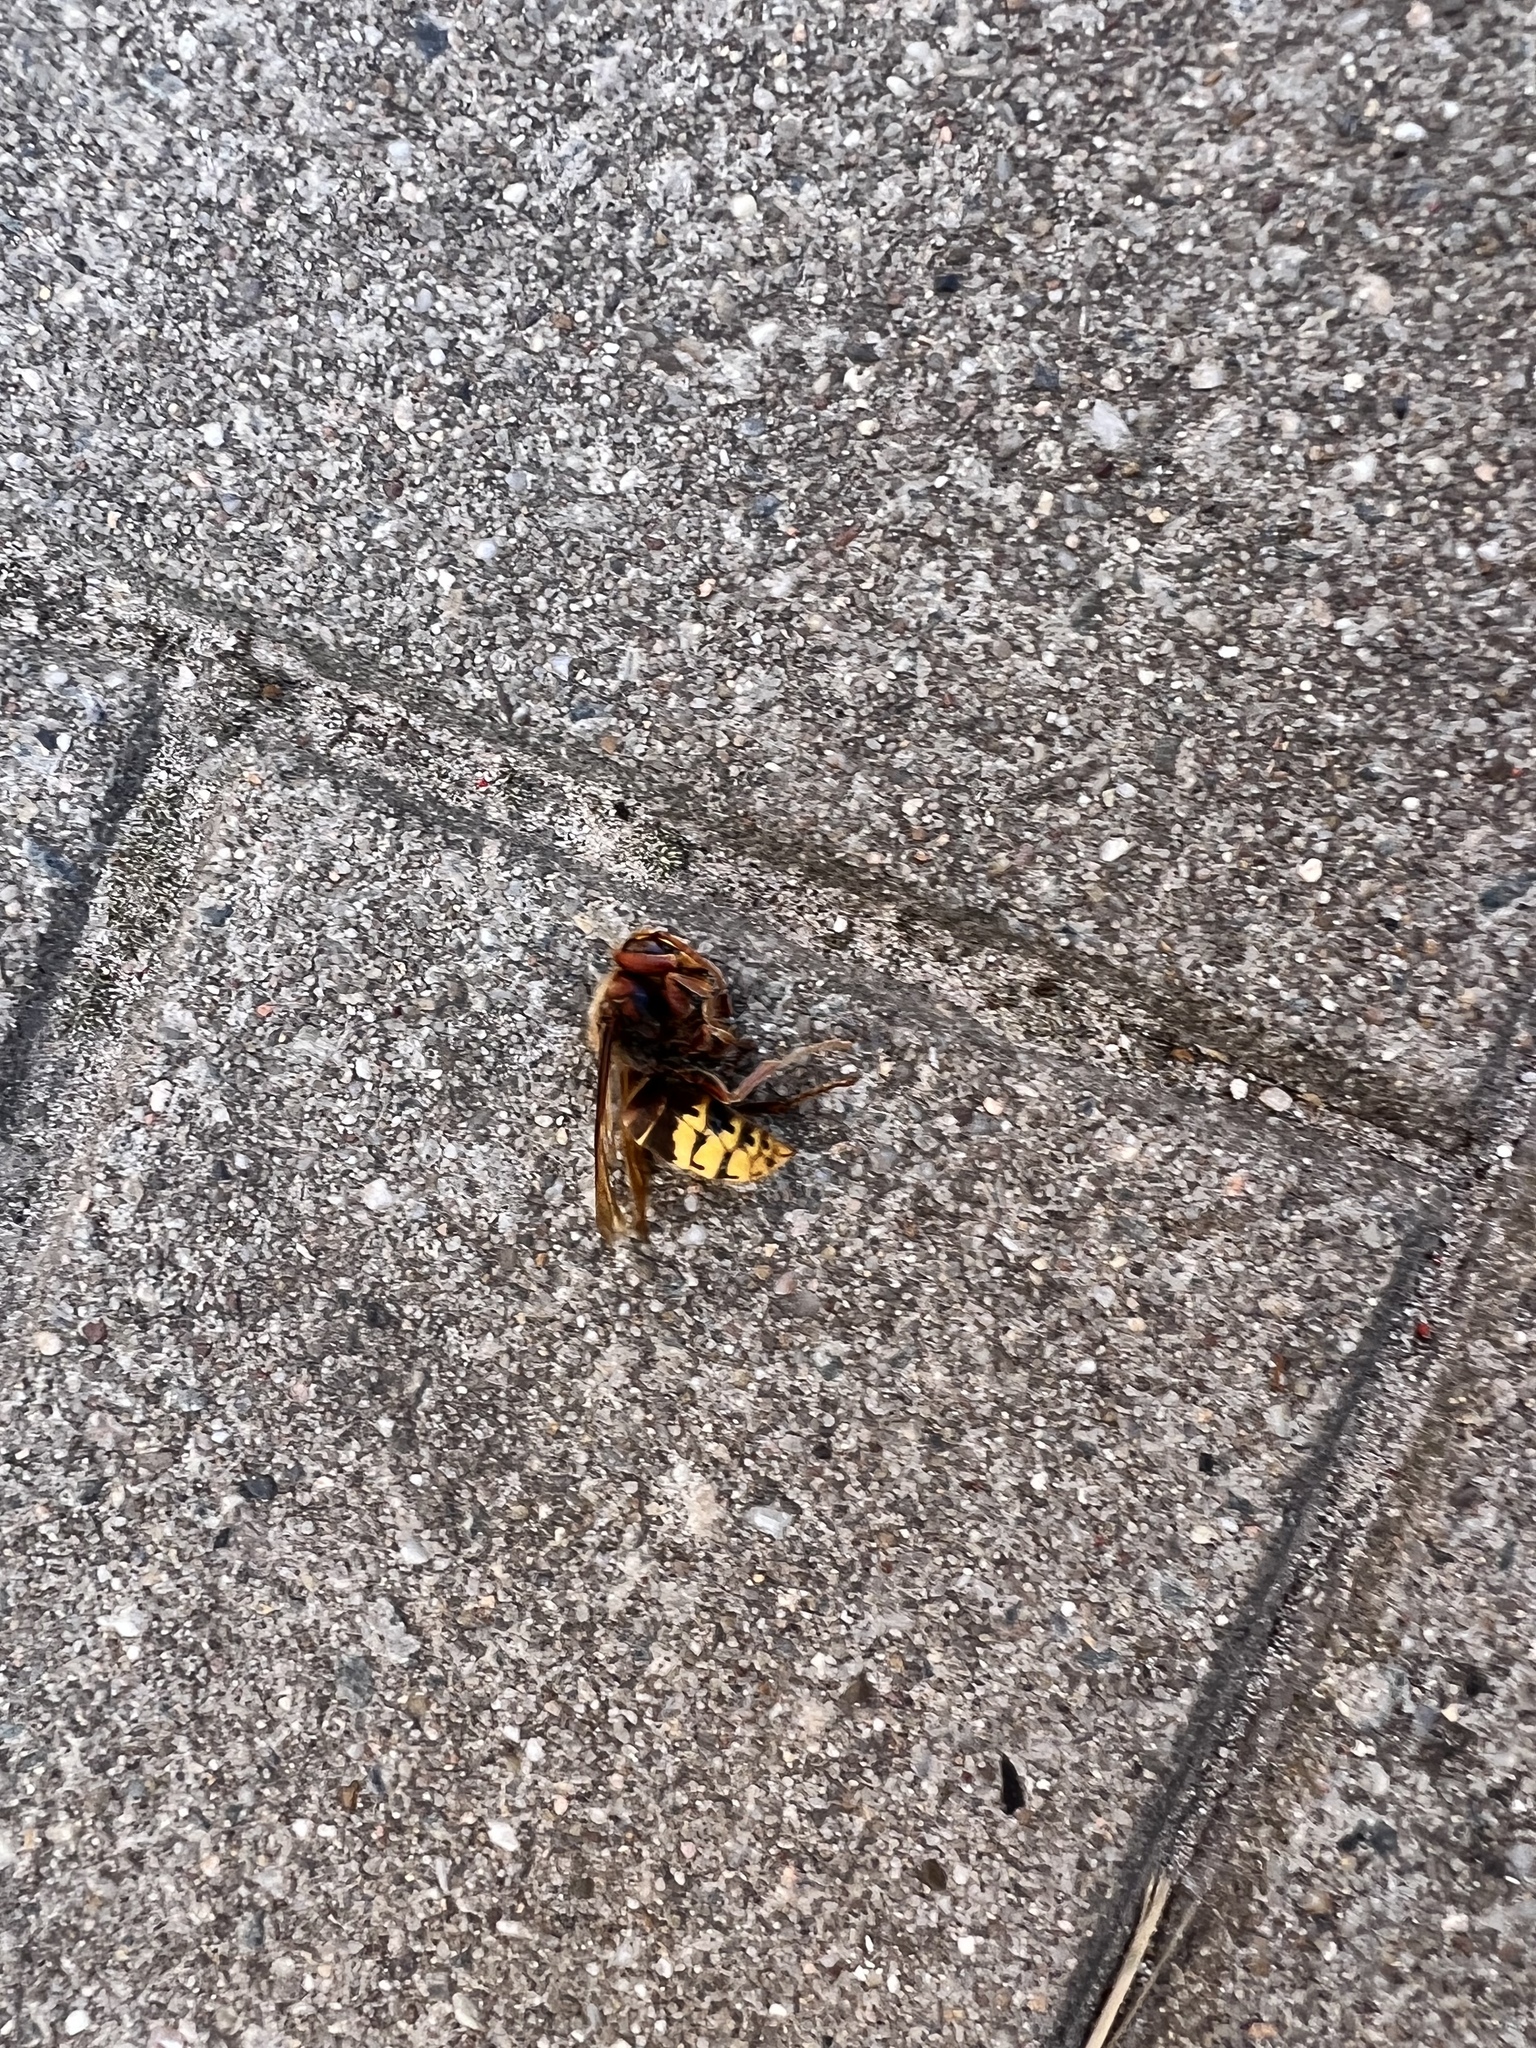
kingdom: Animalia
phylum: Arthropoda
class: Insecta
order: Hymenoptera
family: Vespidae
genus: Vespa
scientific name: Vespa crabro
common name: Hornet
